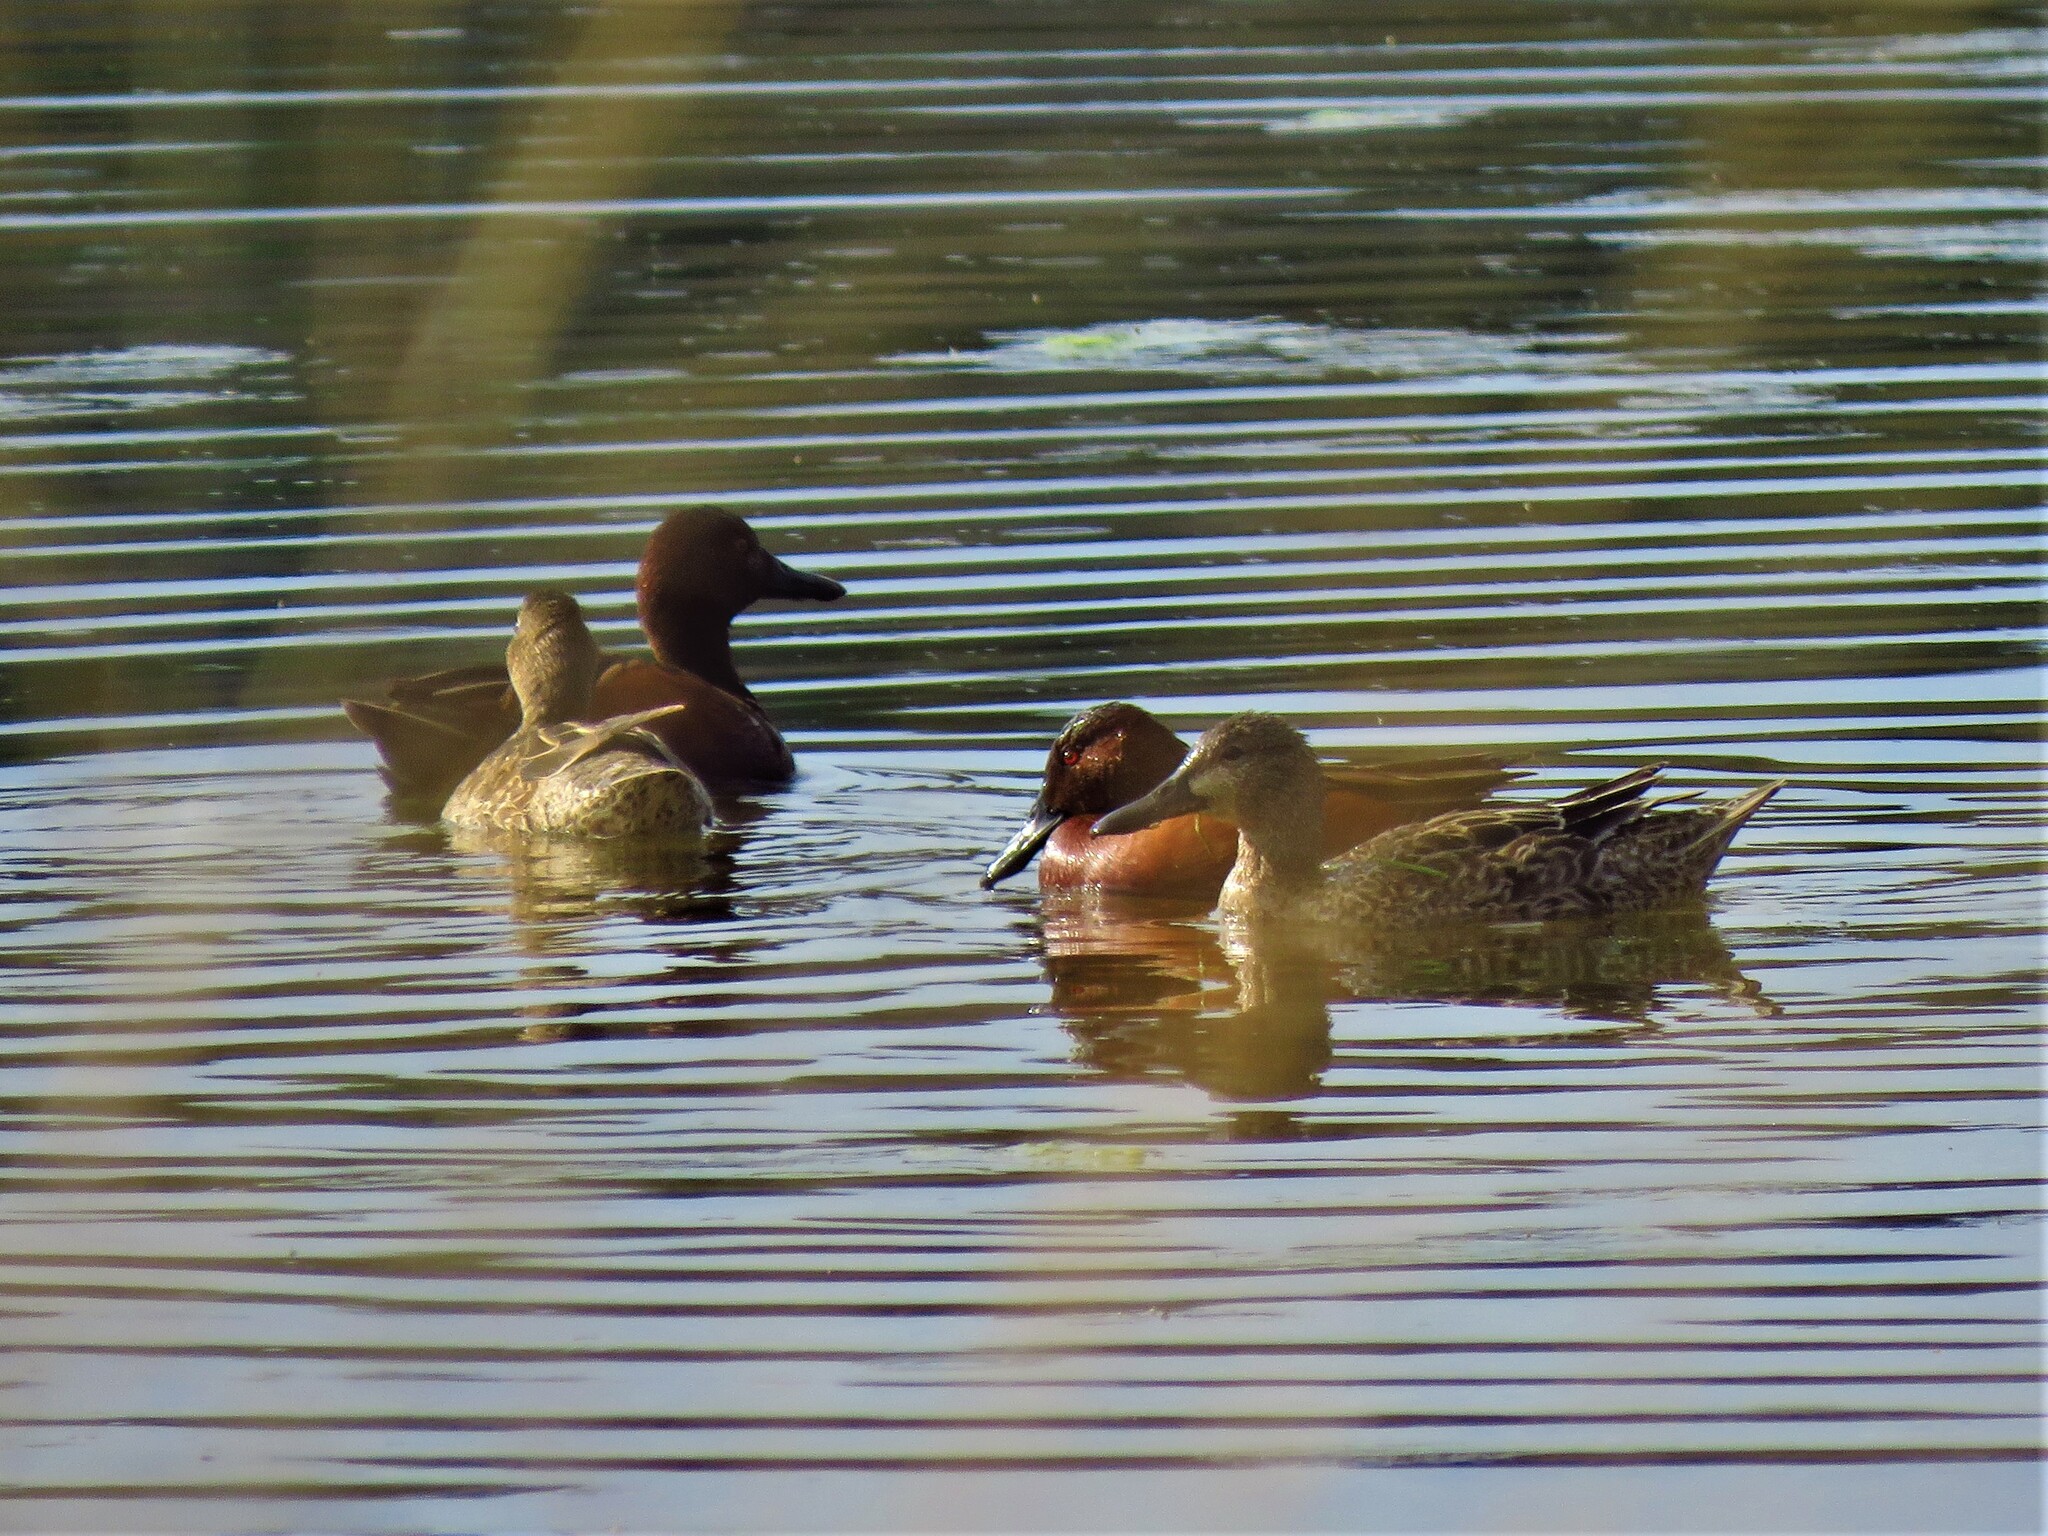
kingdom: Animalia
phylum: Chordata
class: Aves
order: Anseriformes
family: Anatidae
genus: Spatula
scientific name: Spatula cyanoptera
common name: Cinnamon teal
